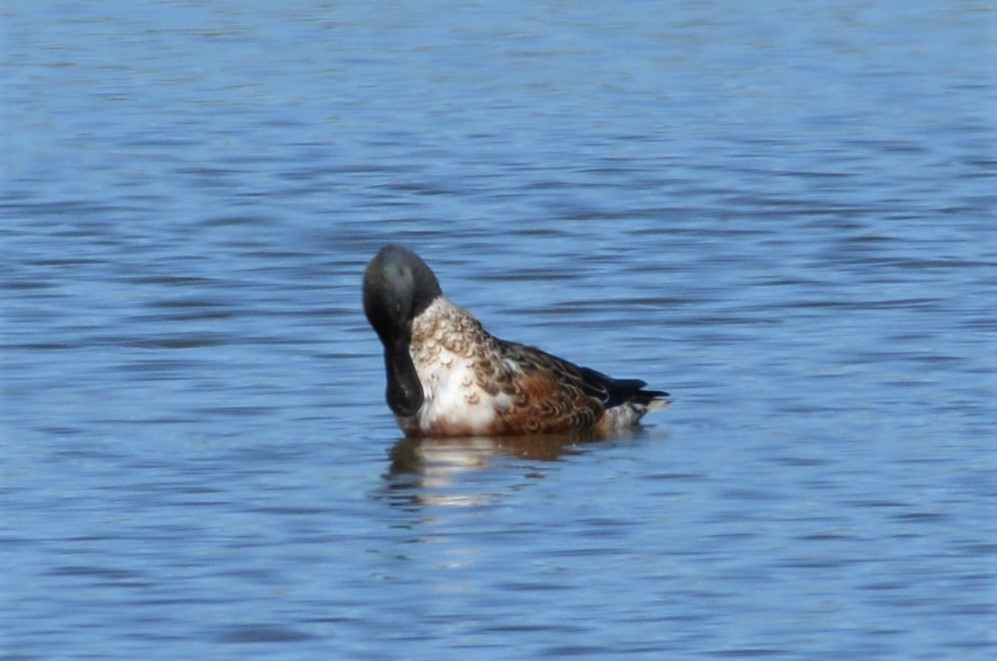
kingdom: Animalia
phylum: Chordata
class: Aves
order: Anseriformes
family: Anatidae
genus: Spatula
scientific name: Spatula clypeata
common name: Northern shoveler
